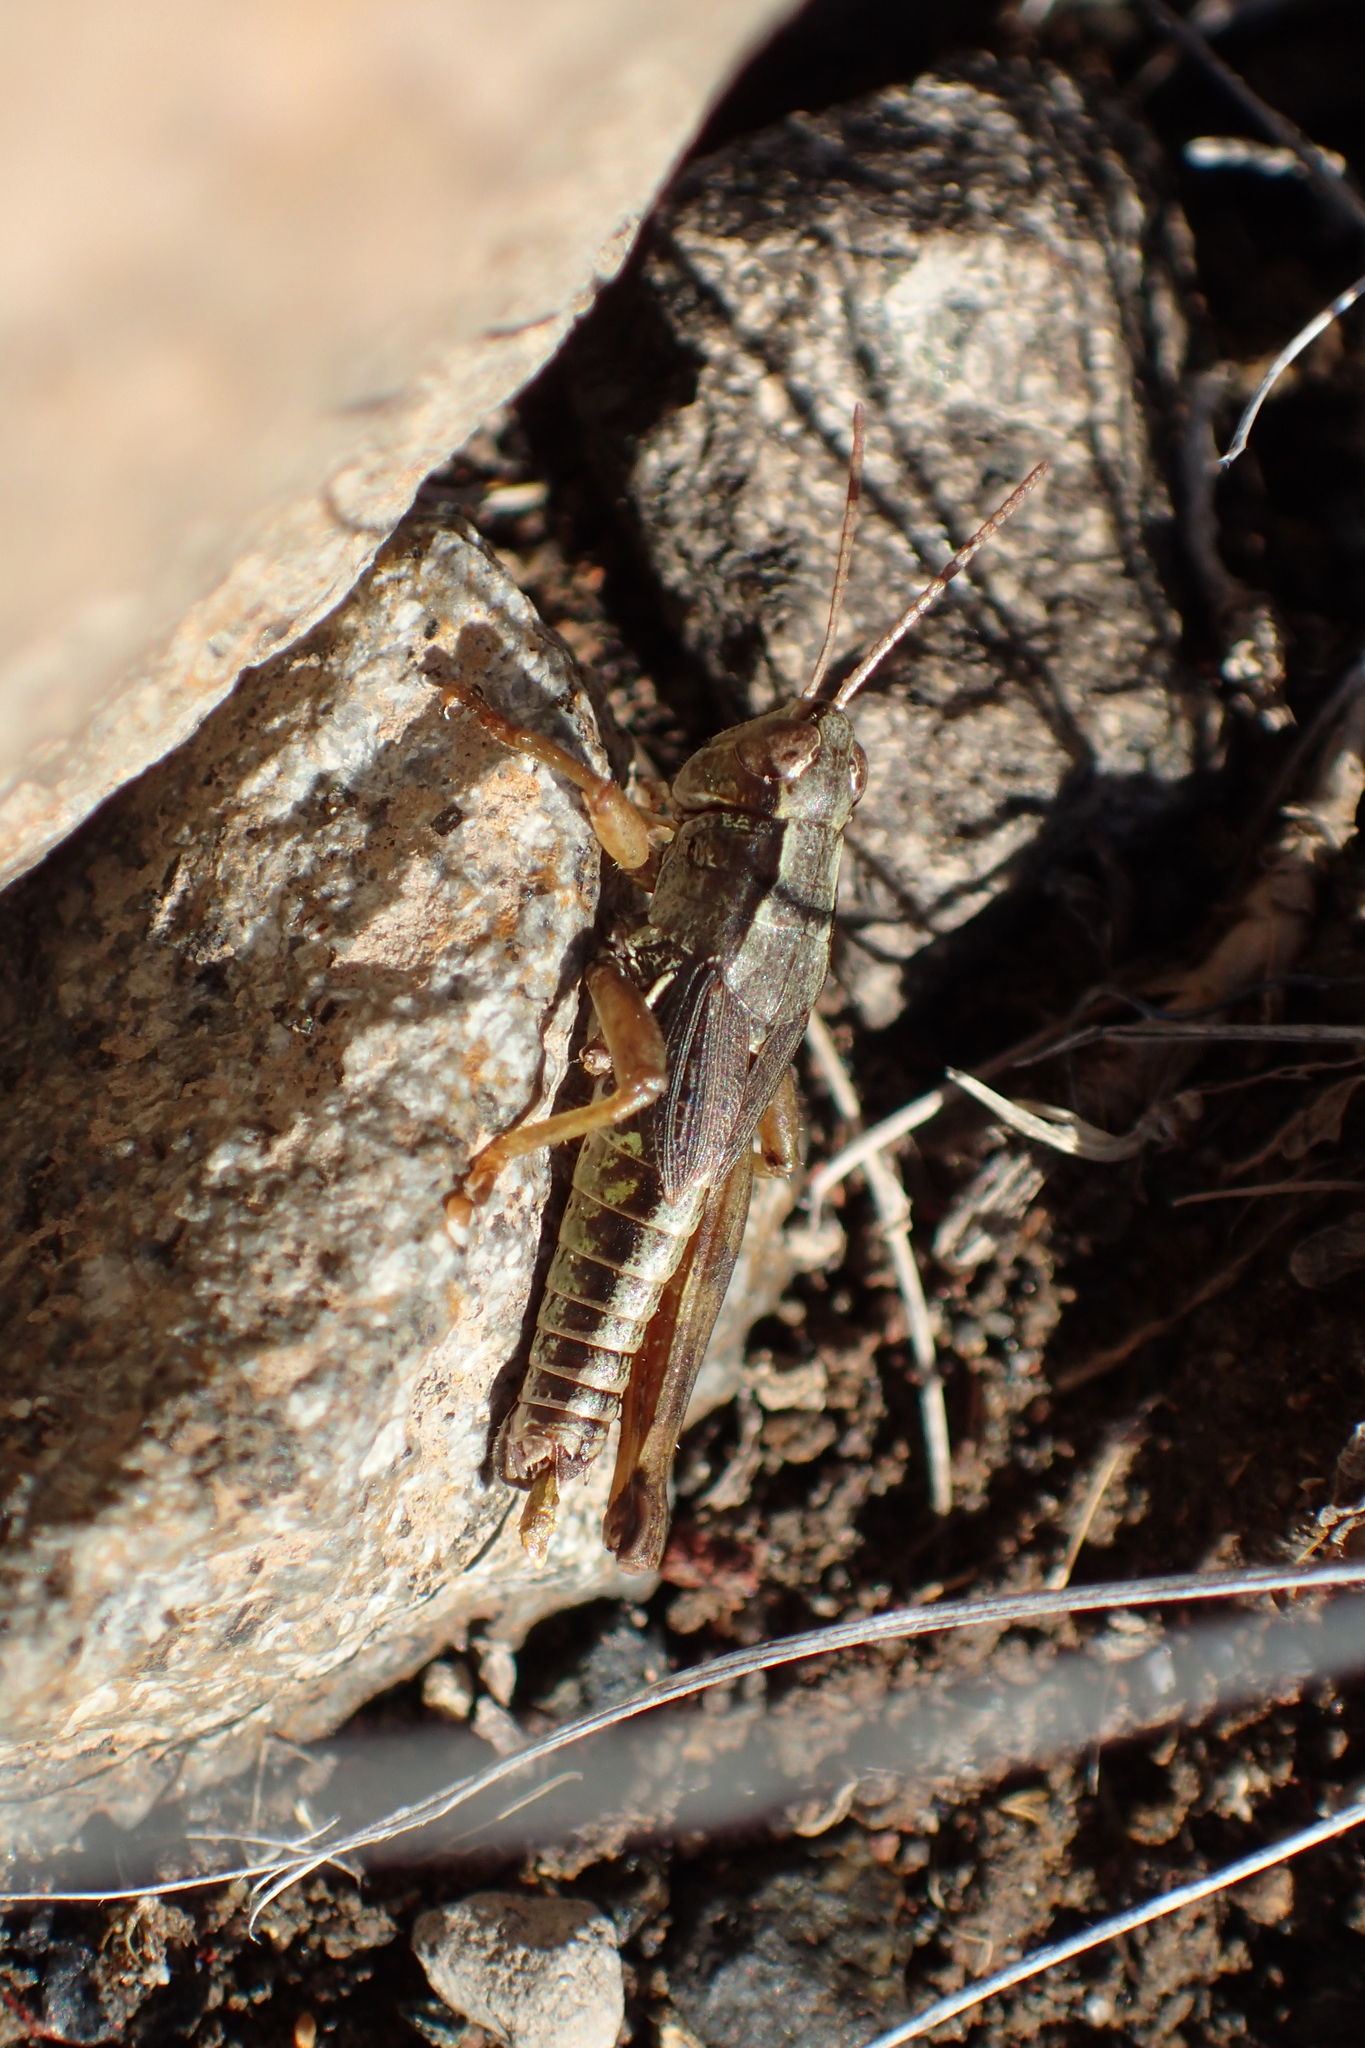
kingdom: Animalia
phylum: Arthropoda
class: Insecta
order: Orthoptera
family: Acrididae
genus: Phaulacridium
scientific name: Phaulacridium marginale
